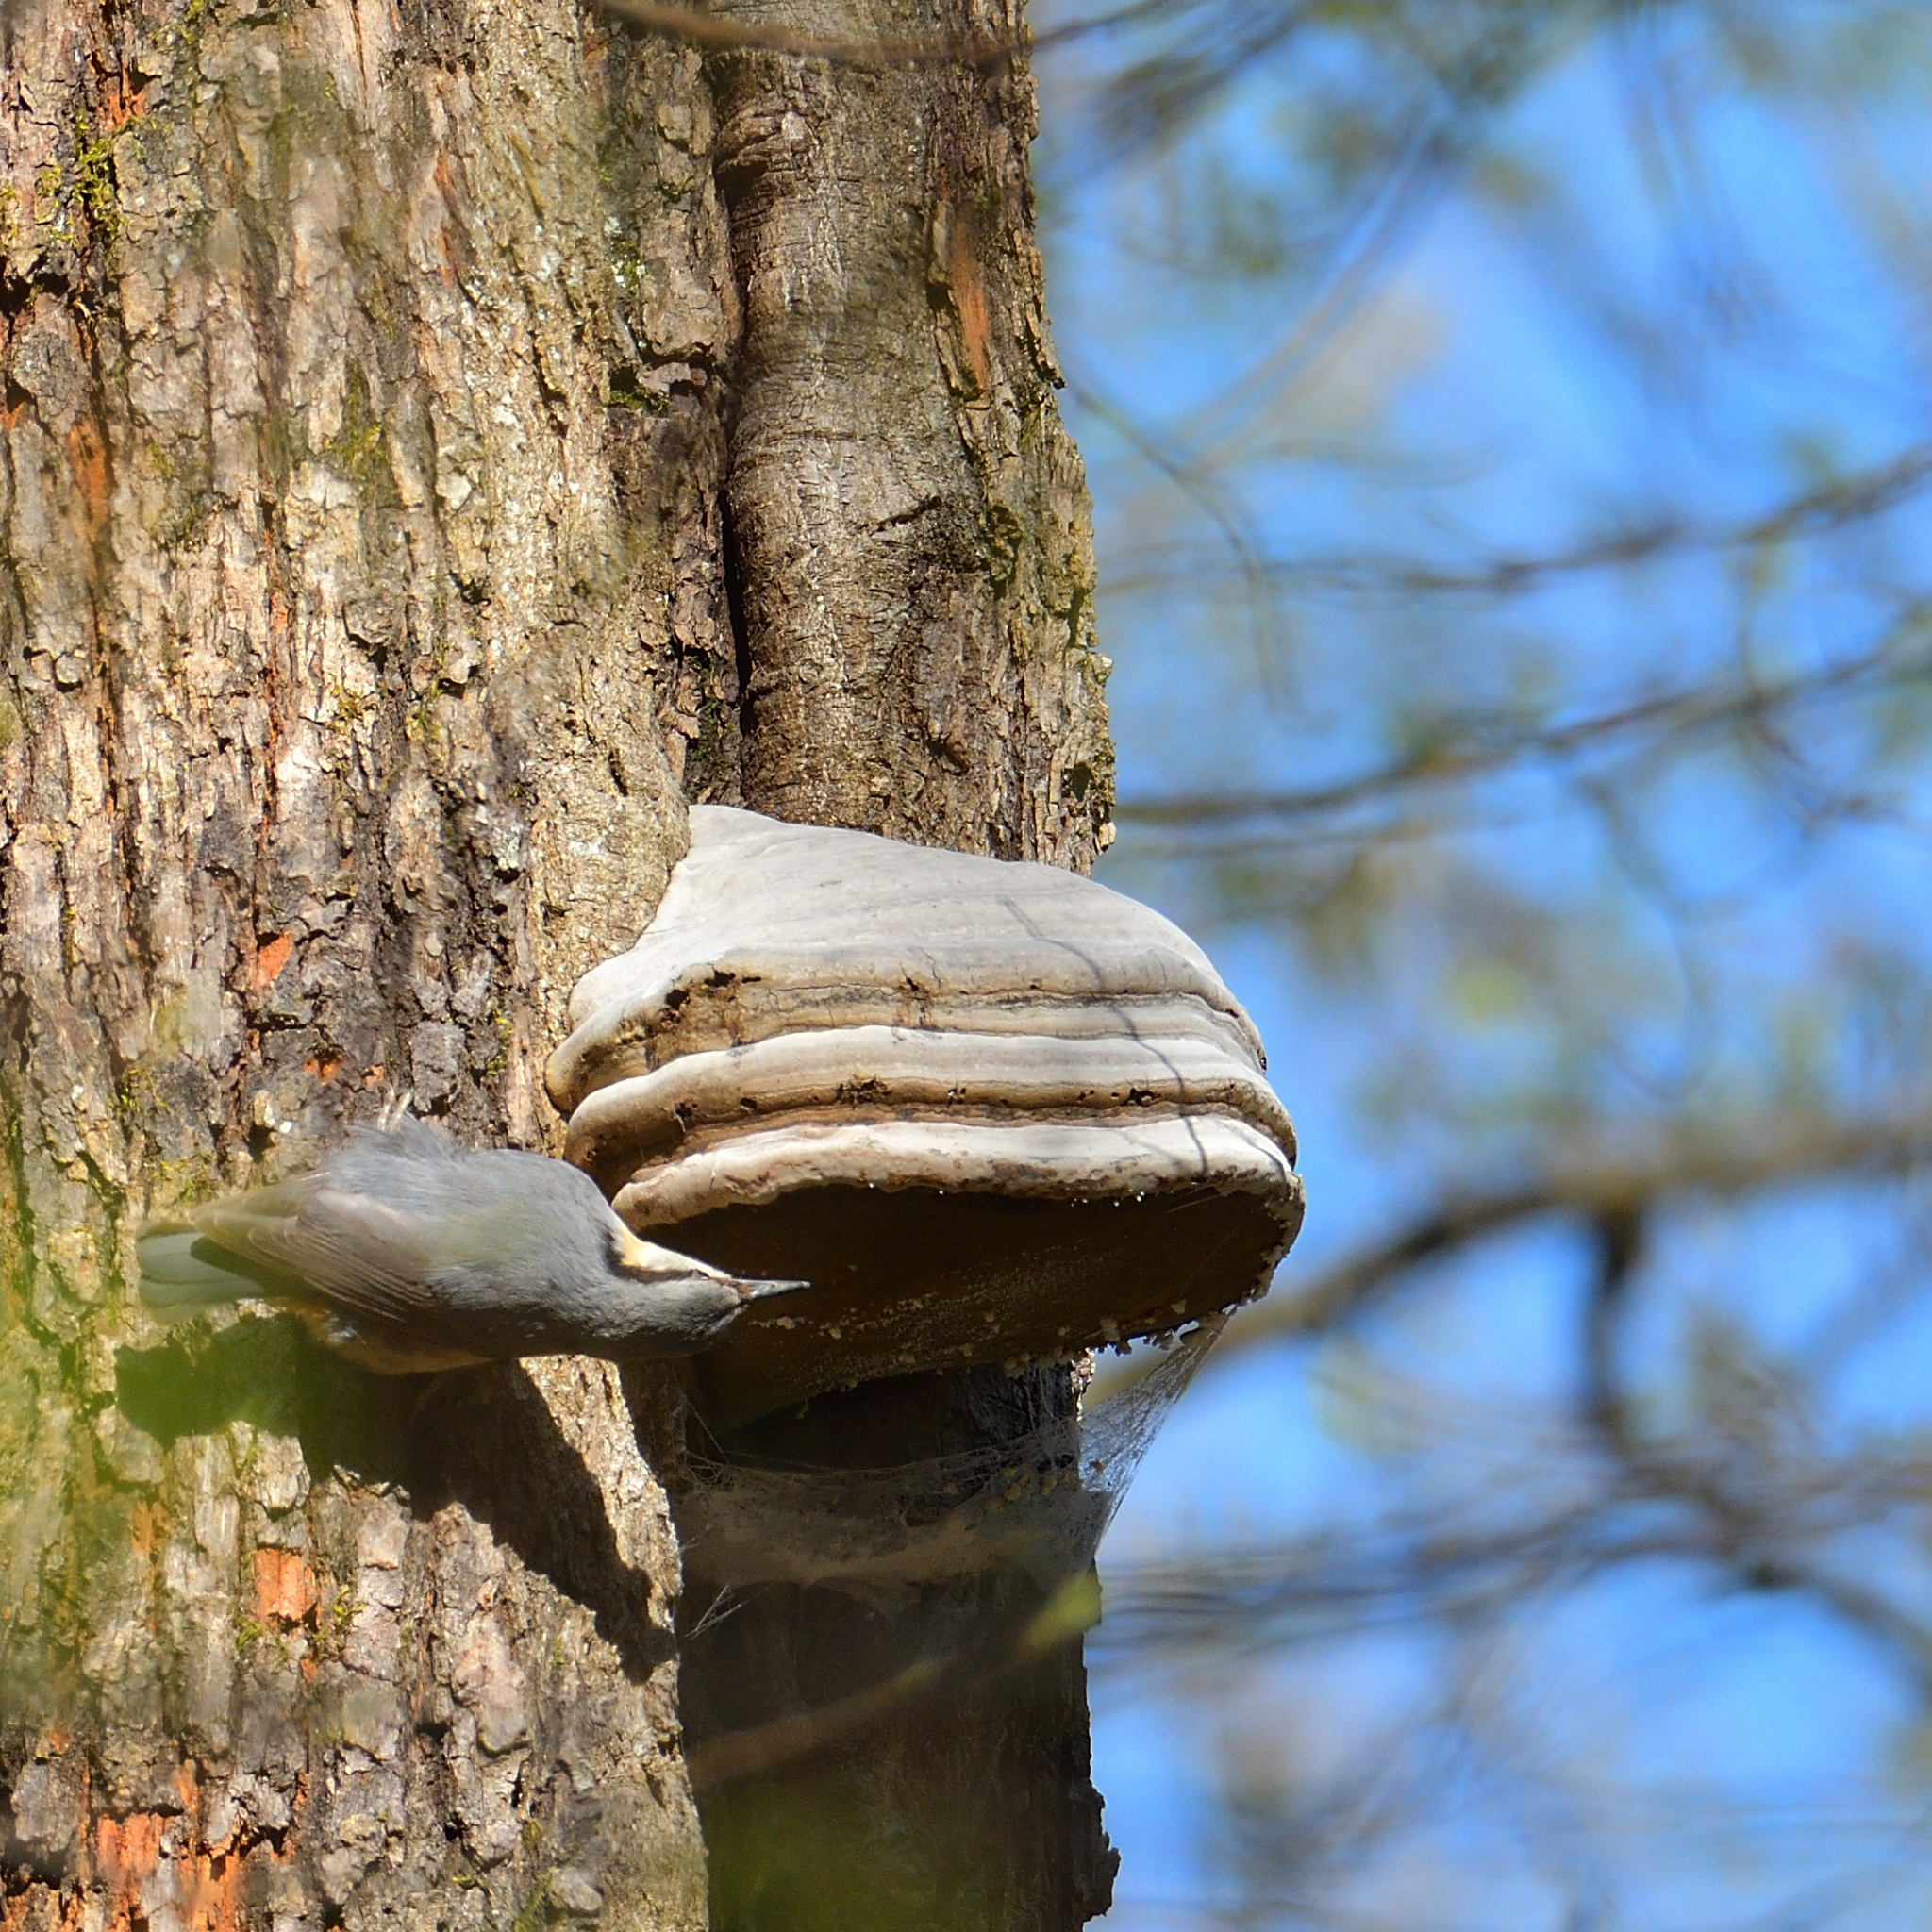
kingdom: Animalia
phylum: Chordata
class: Aves
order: Passeriformes
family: Sittidae
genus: Sitta
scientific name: Sitta europaea
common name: Eurasian nuthatch
